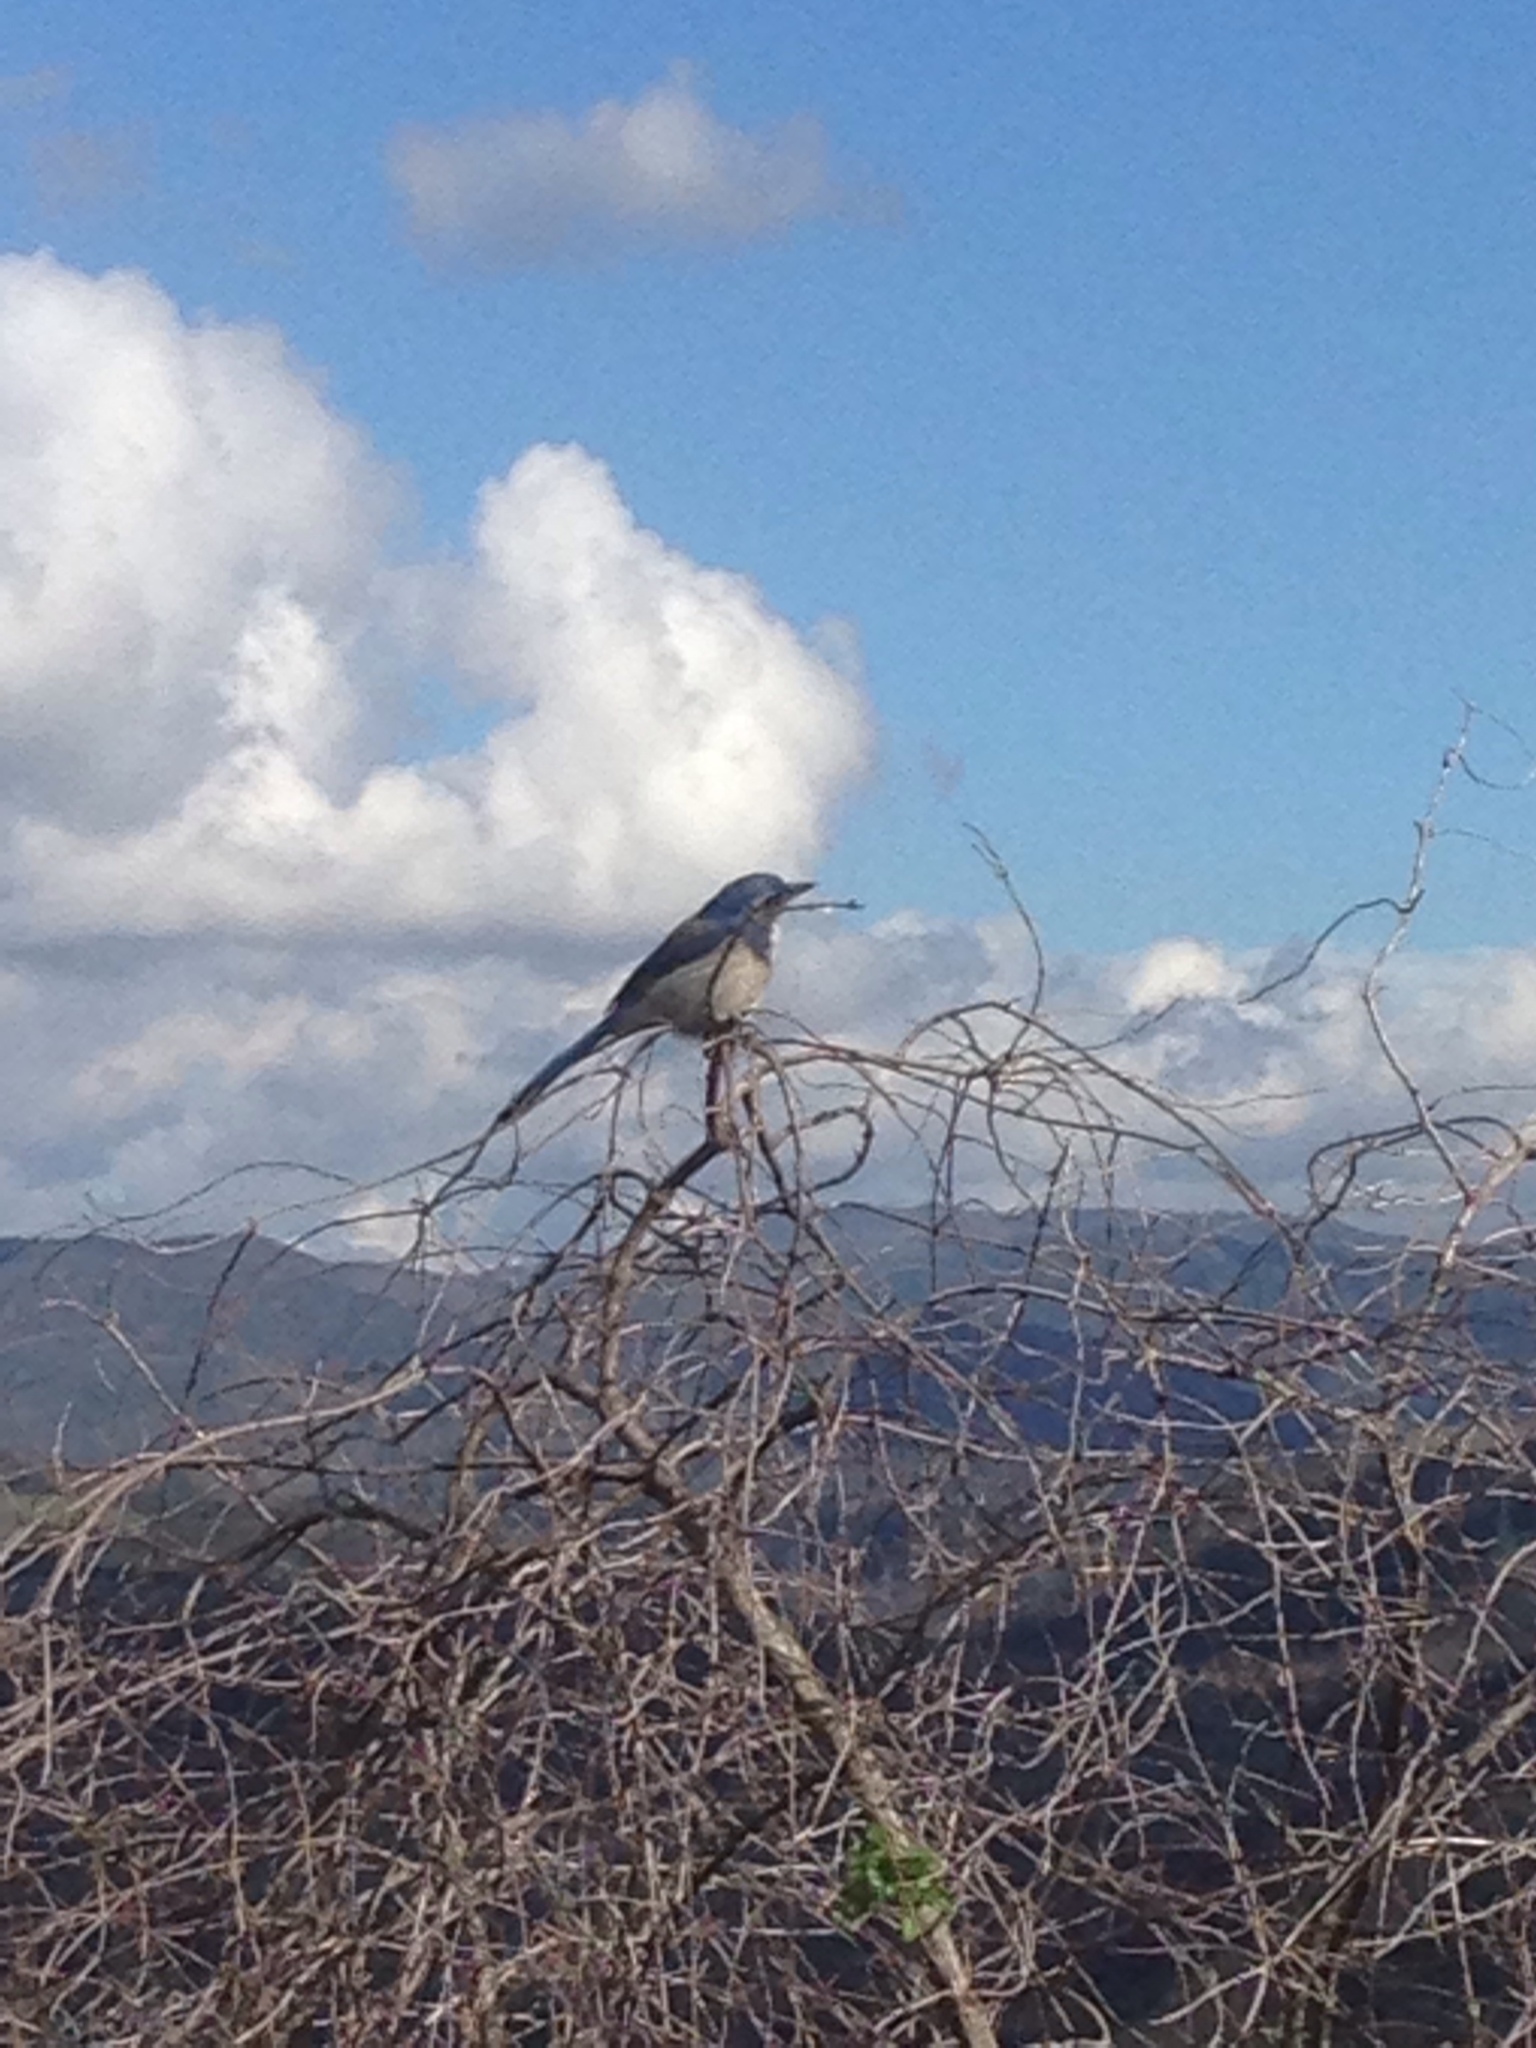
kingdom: Animalia
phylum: Chordata
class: Aves
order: Passeriformes
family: Corvidae
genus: Aphelocoma
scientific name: Aphelocoma californica
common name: California scrub-jay
